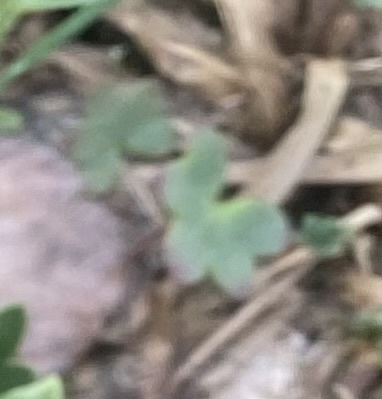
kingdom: Plantae
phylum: Tracheophyta
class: Magnoliopsida
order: Saxifragales
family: Saxifragaceae
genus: Saxifraga
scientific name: Saxifraga cernua
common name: Drooping saxifrage
